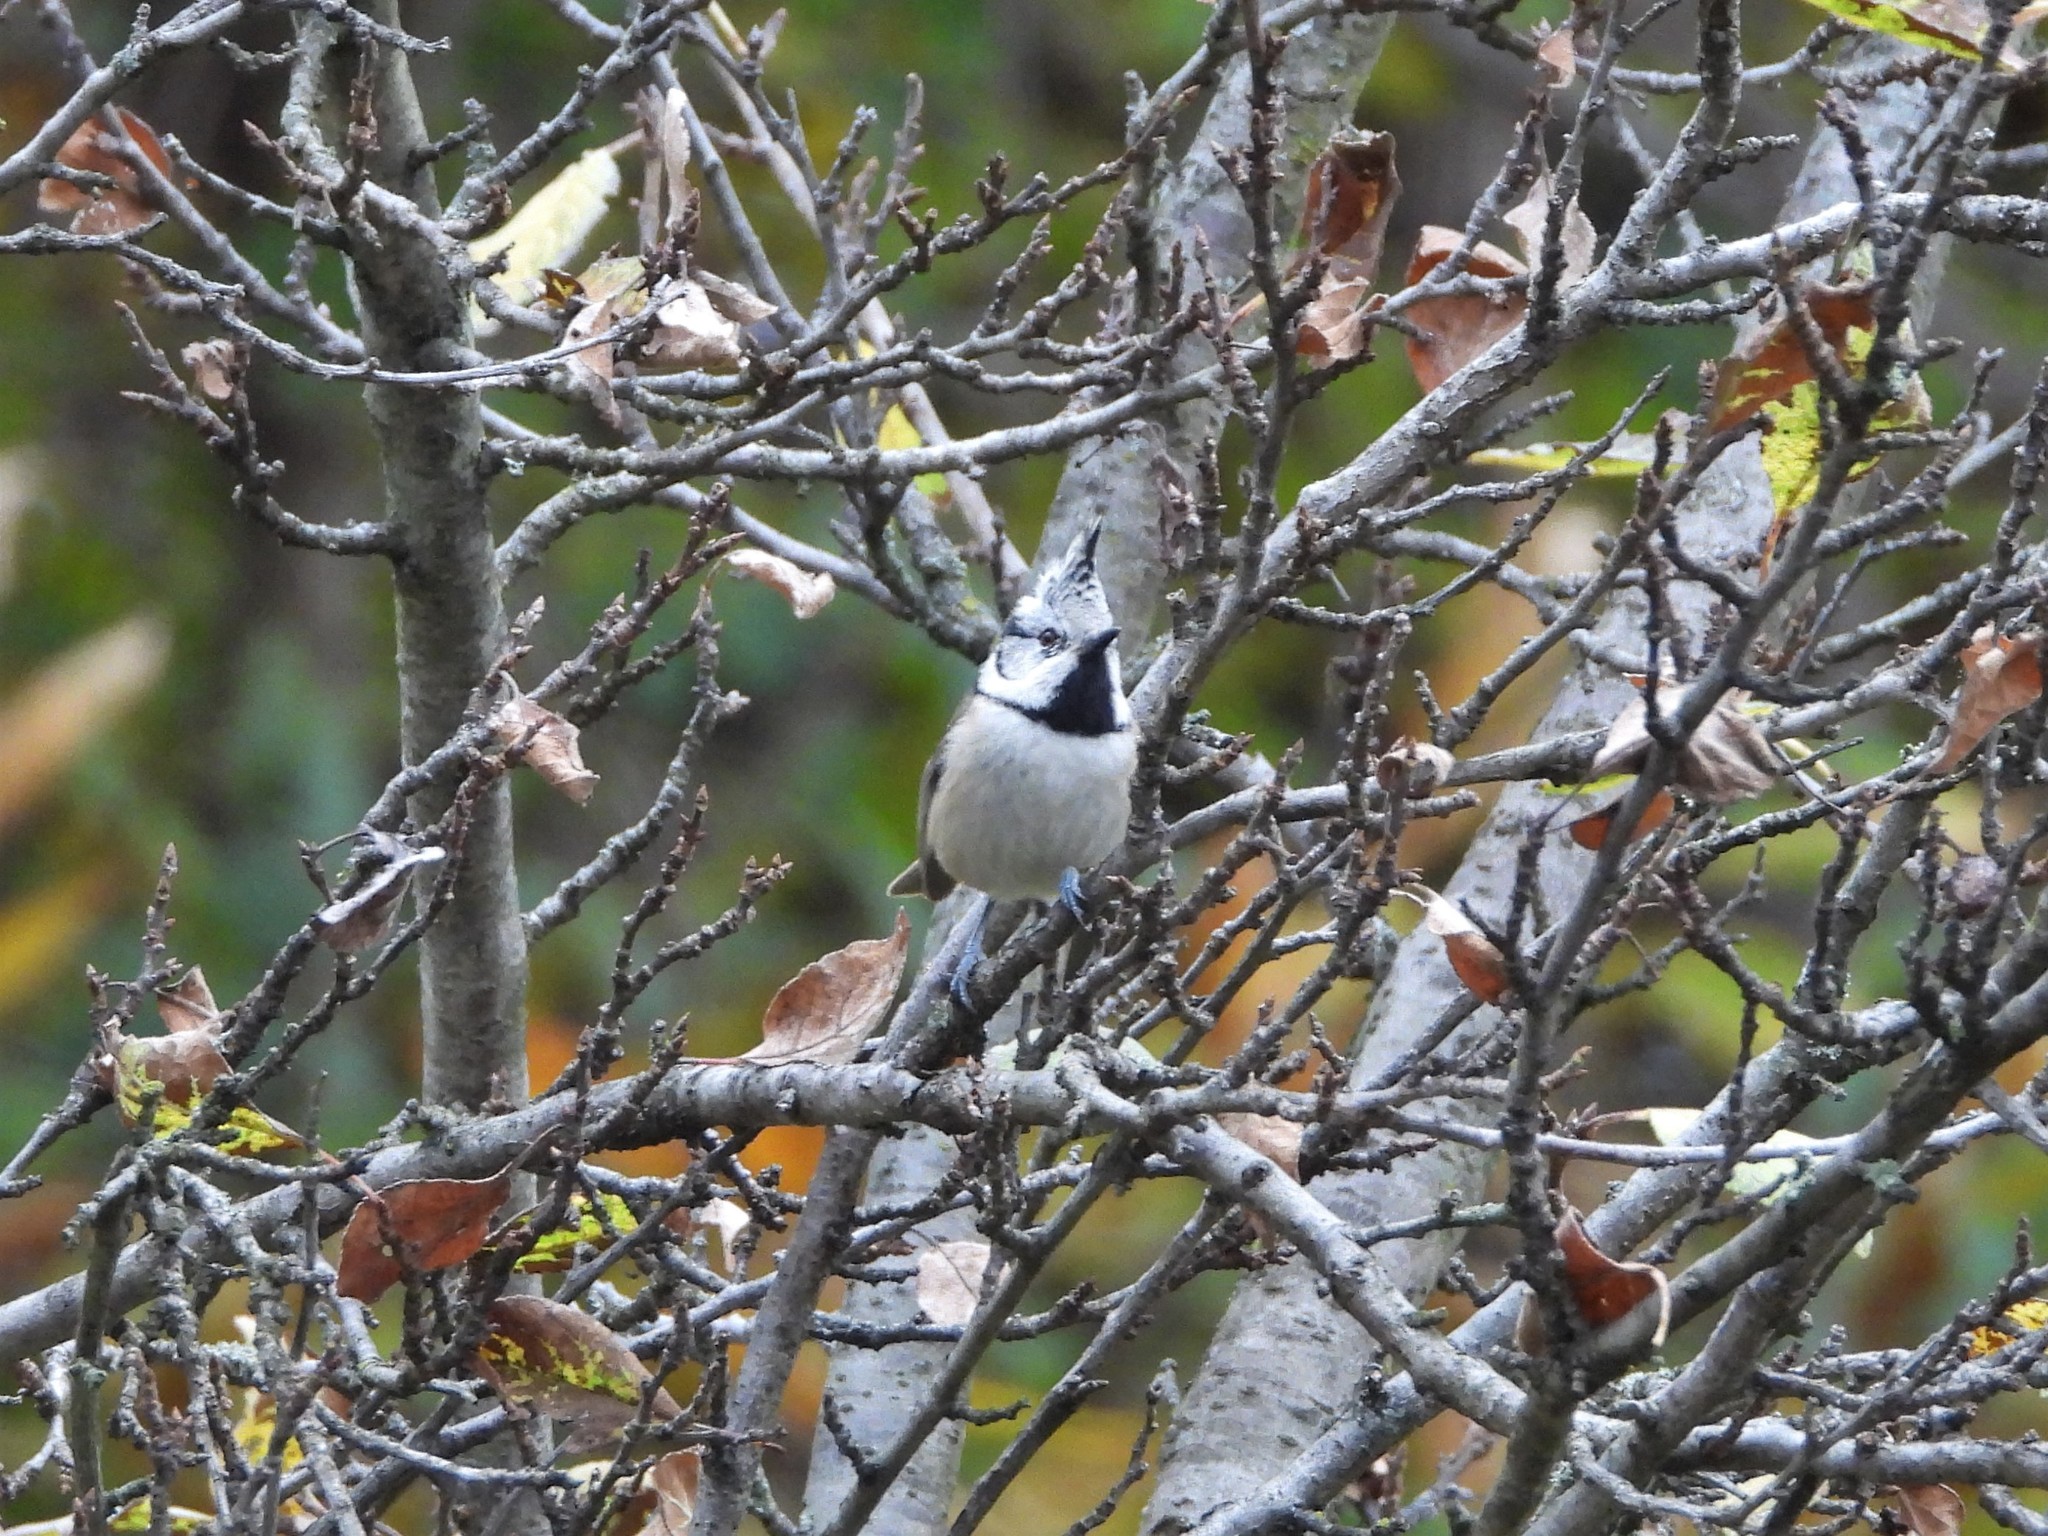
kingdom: Animalia
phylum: Chordata
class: Aves
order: Passeriformes
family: Paridae
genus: Lophophanes
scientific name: Lophophanes cristatus
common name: European crested tit
